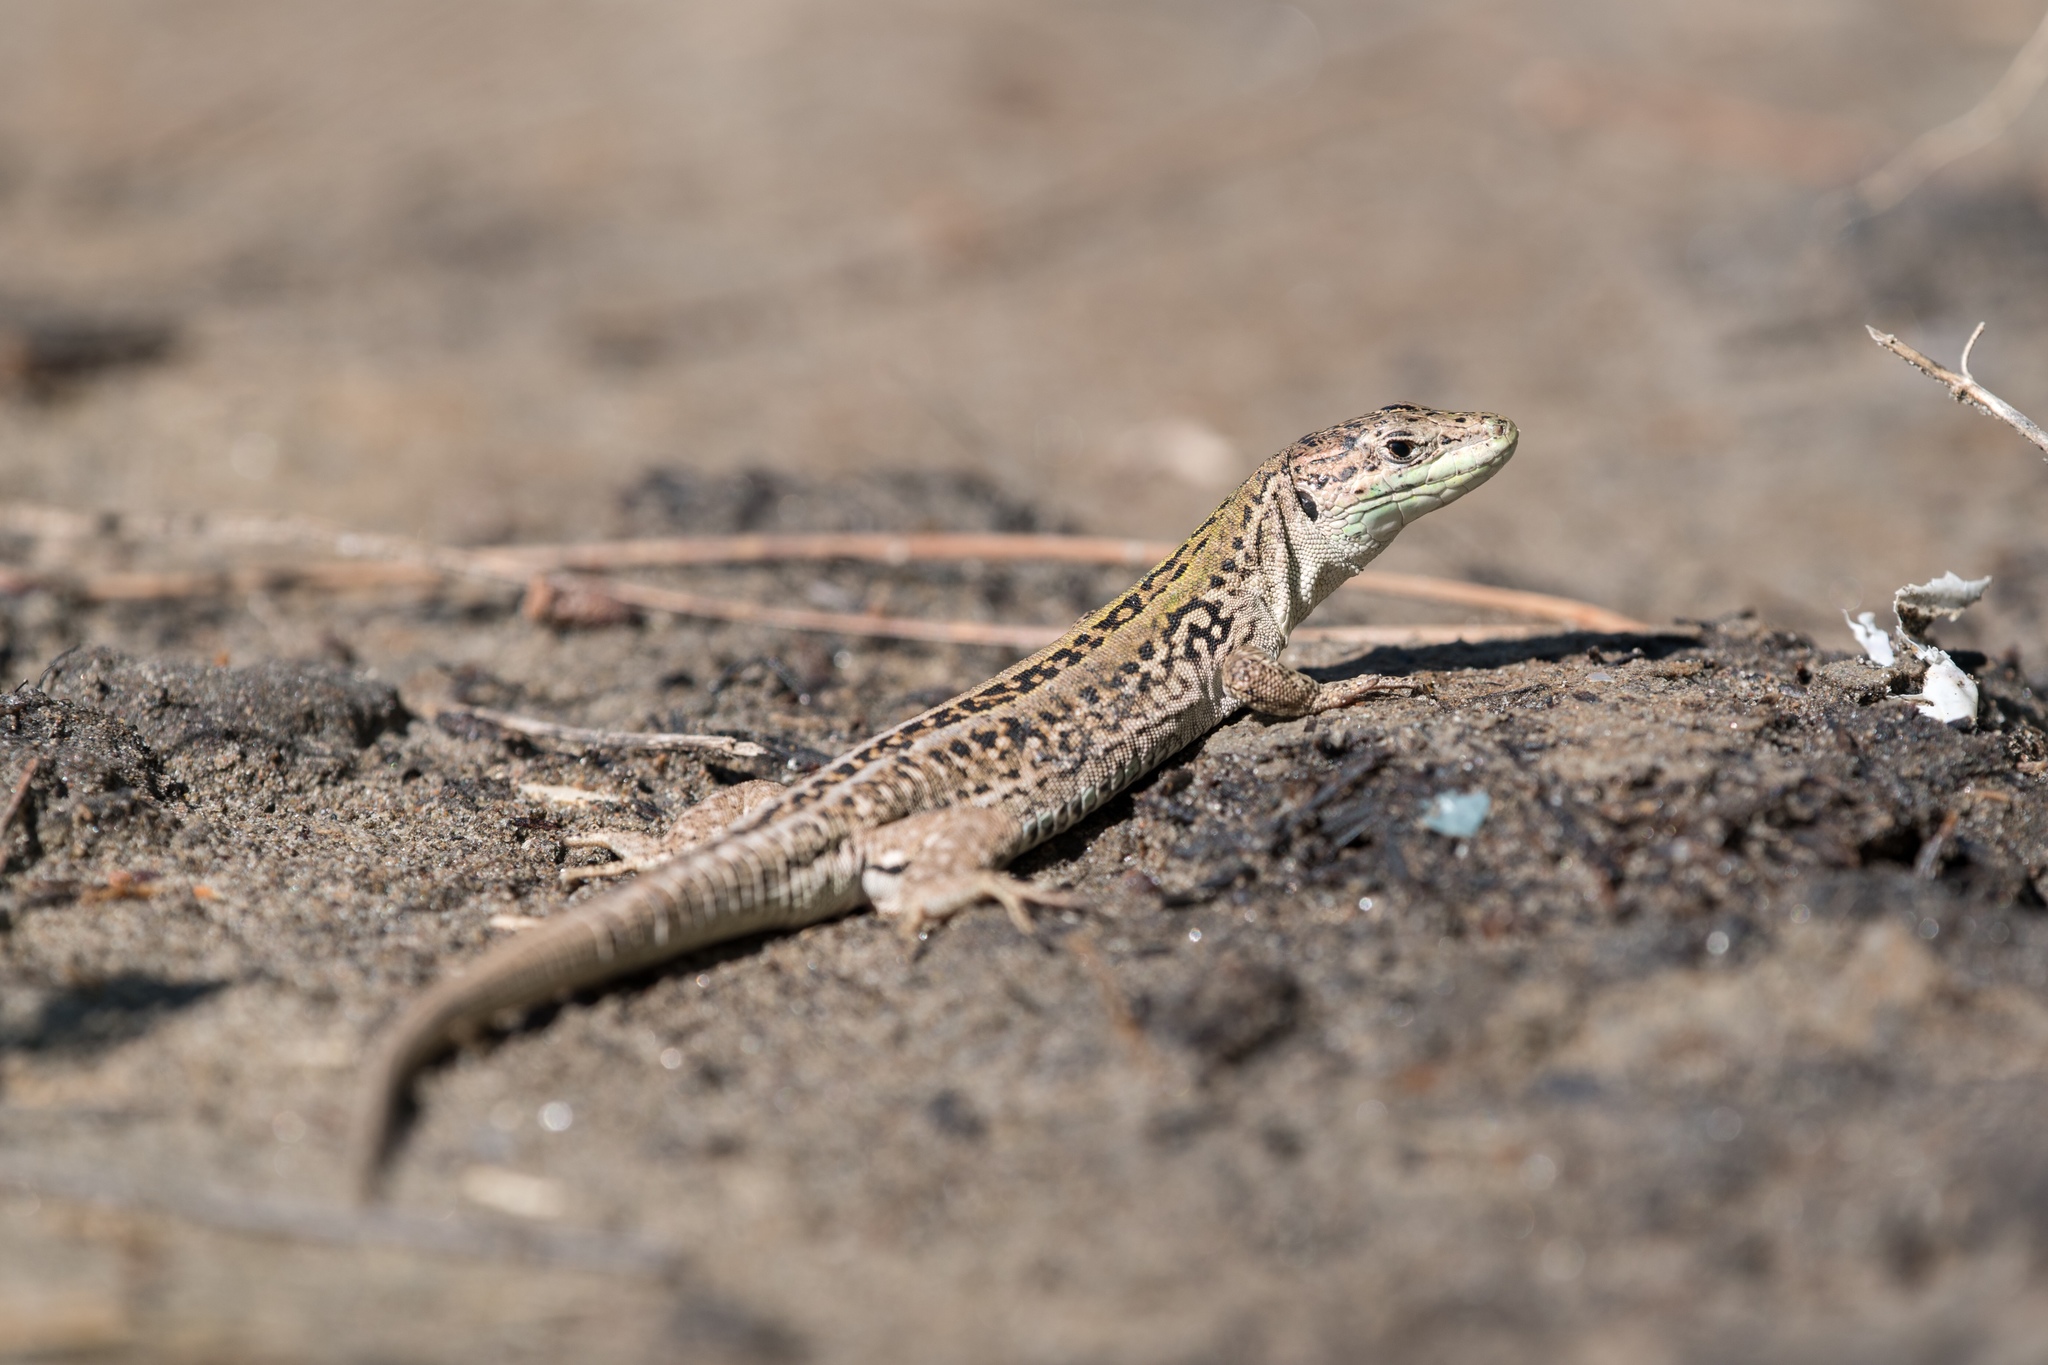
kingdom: Animalia
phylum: Chordata
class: Squamata
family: Lacertidae
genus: Podarcis
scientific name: Podarcis siculus
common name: Italian wall lizard
